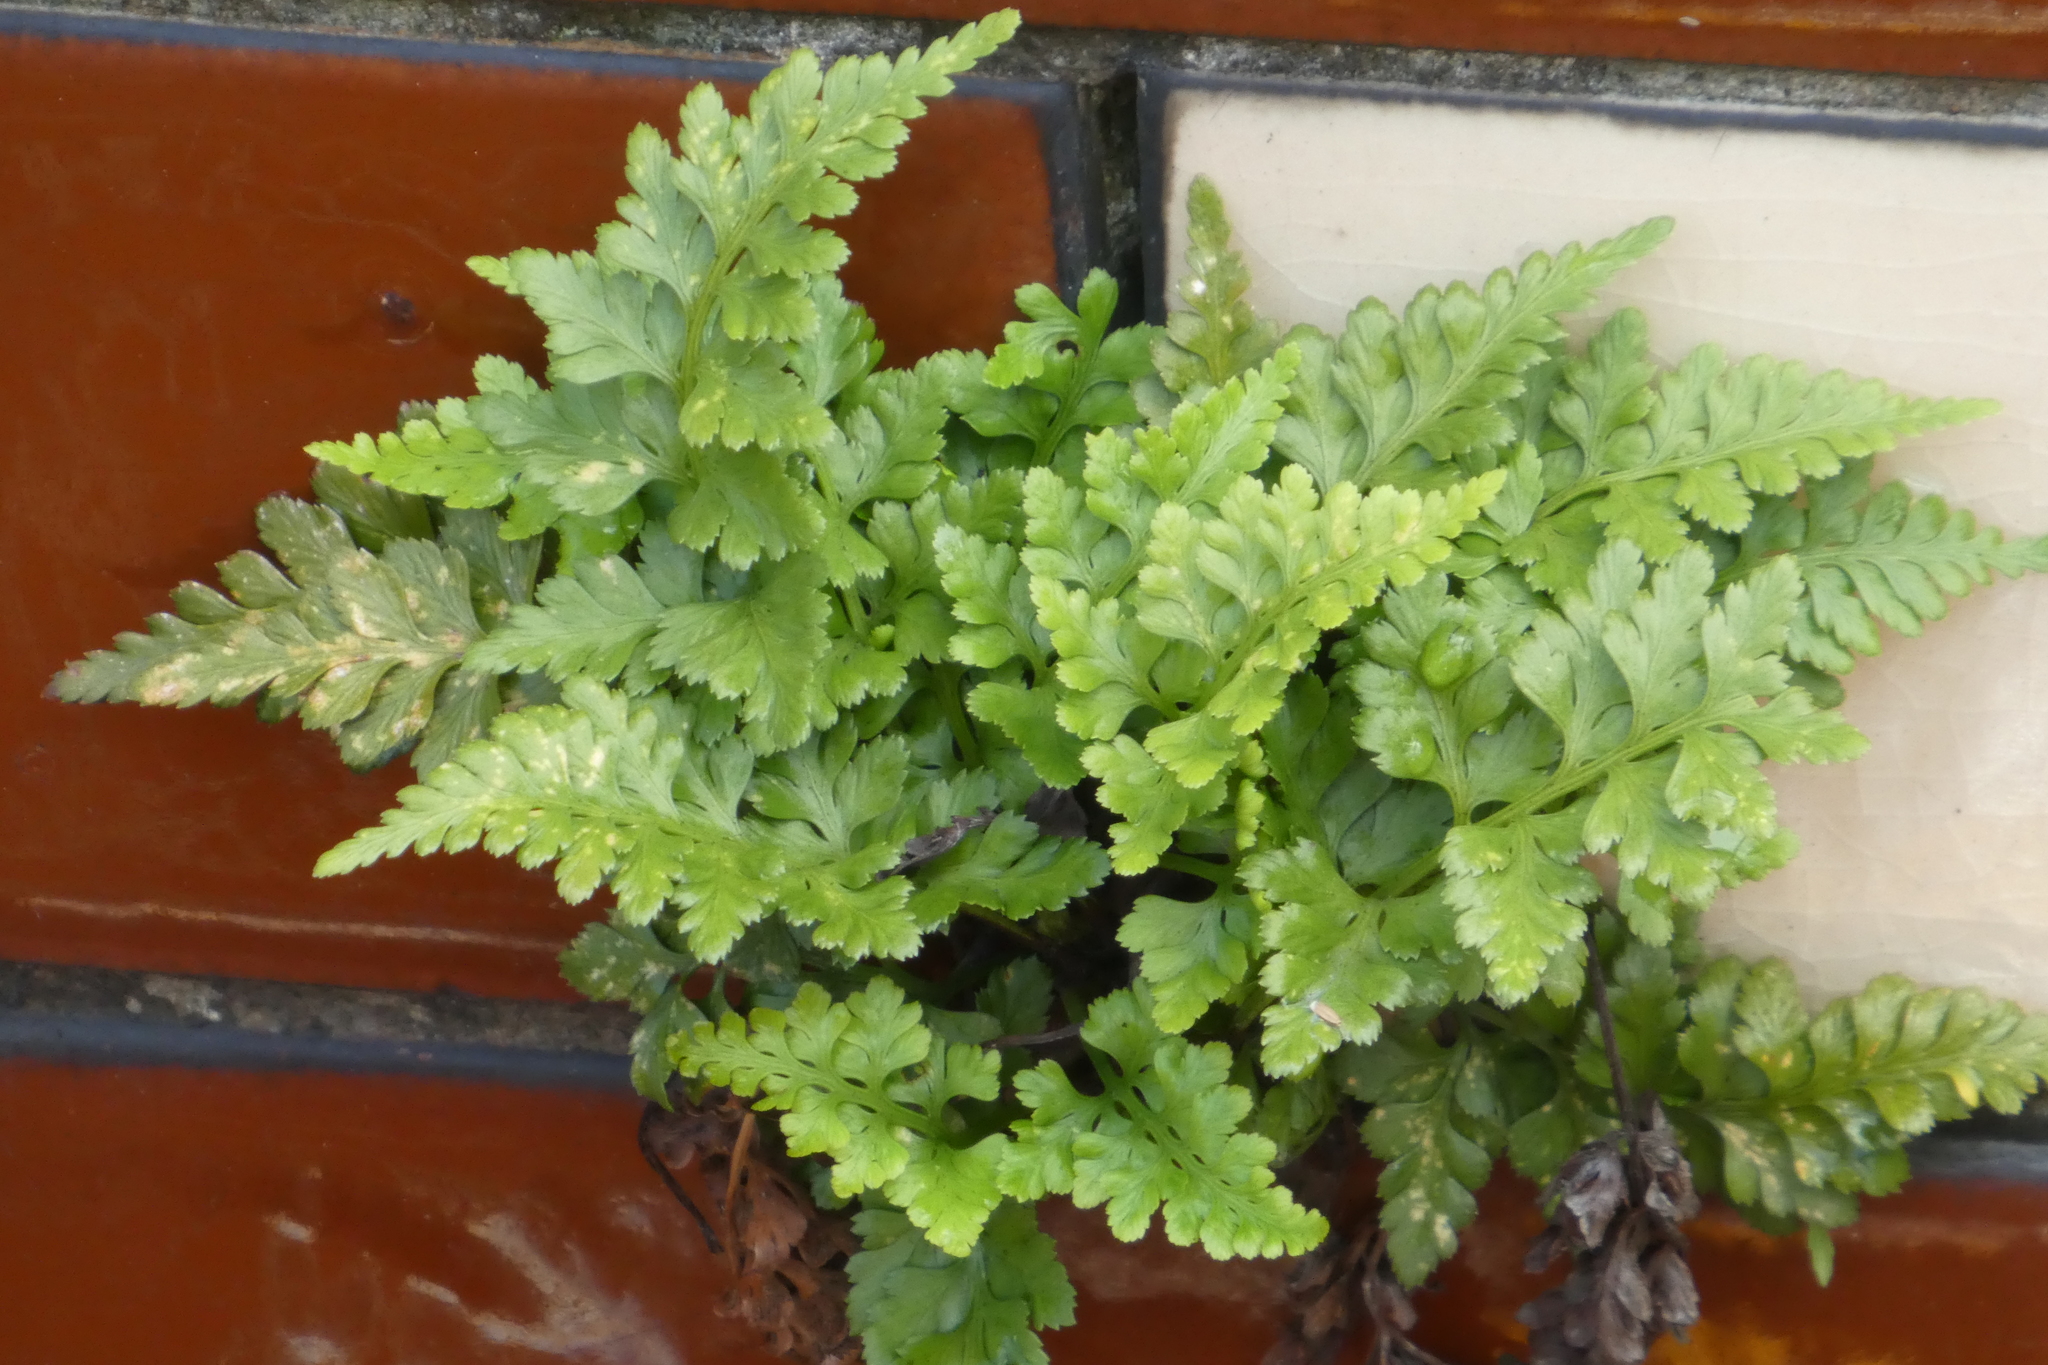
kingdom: Plantae
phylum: Tracheophyta
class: Polypodiopsida
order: Polypodiales
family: Aspleniaceae
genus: Asplenium
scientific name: Asplenium adiantum-nigrum
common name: Black spleenwort
